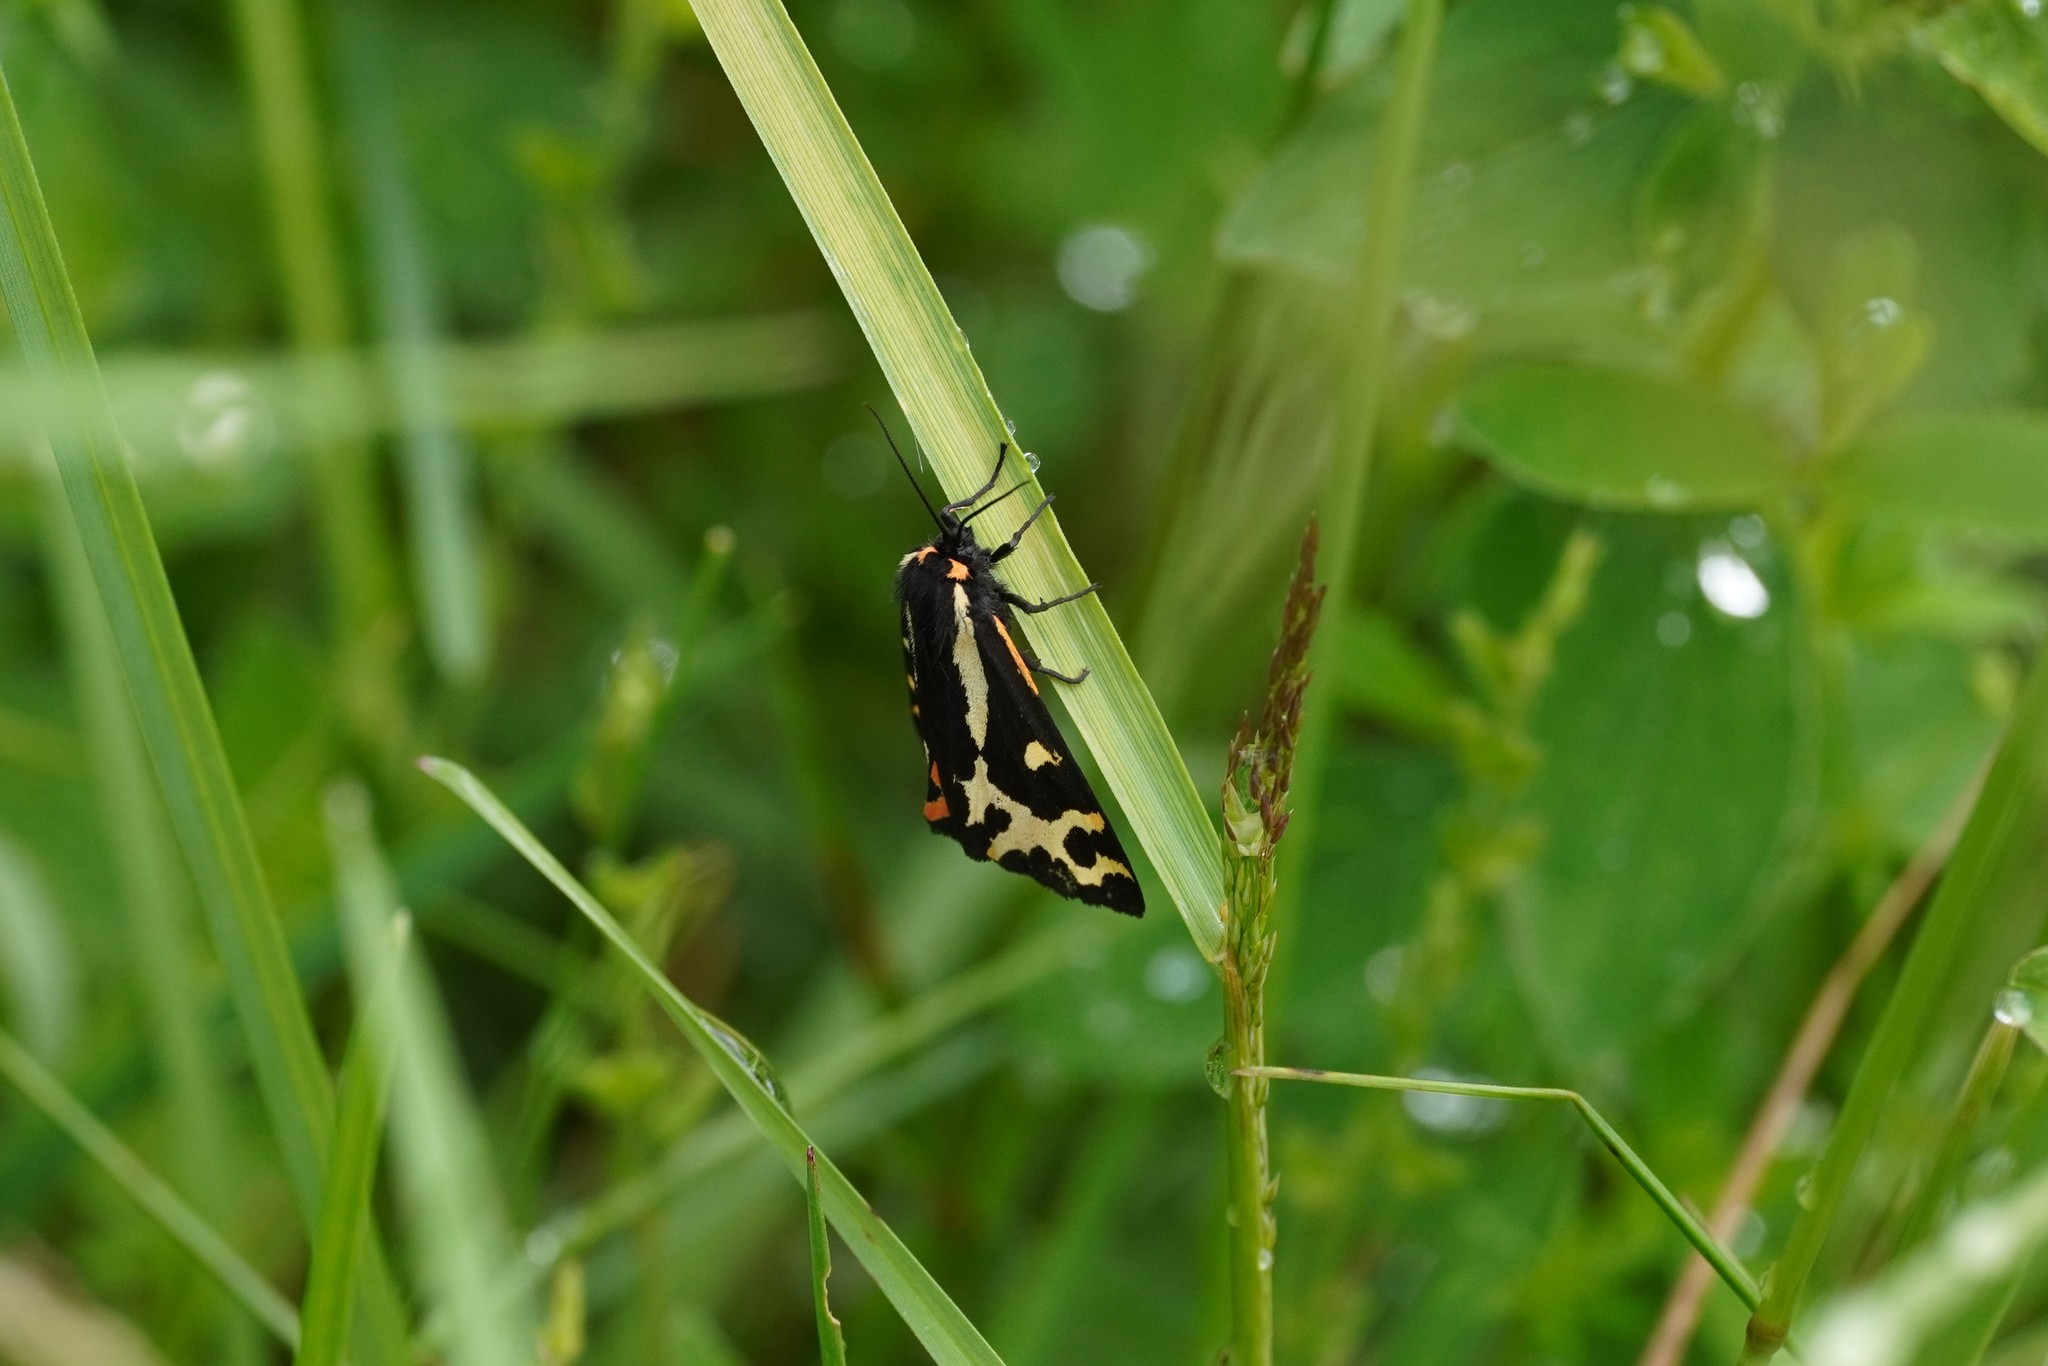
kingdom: Animalia
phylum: Arthropoda
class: Insecta
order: Lepidoptera
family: Erebidae
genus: Parasemia
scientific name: Parasemia plantaginis
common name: Wood tiger
